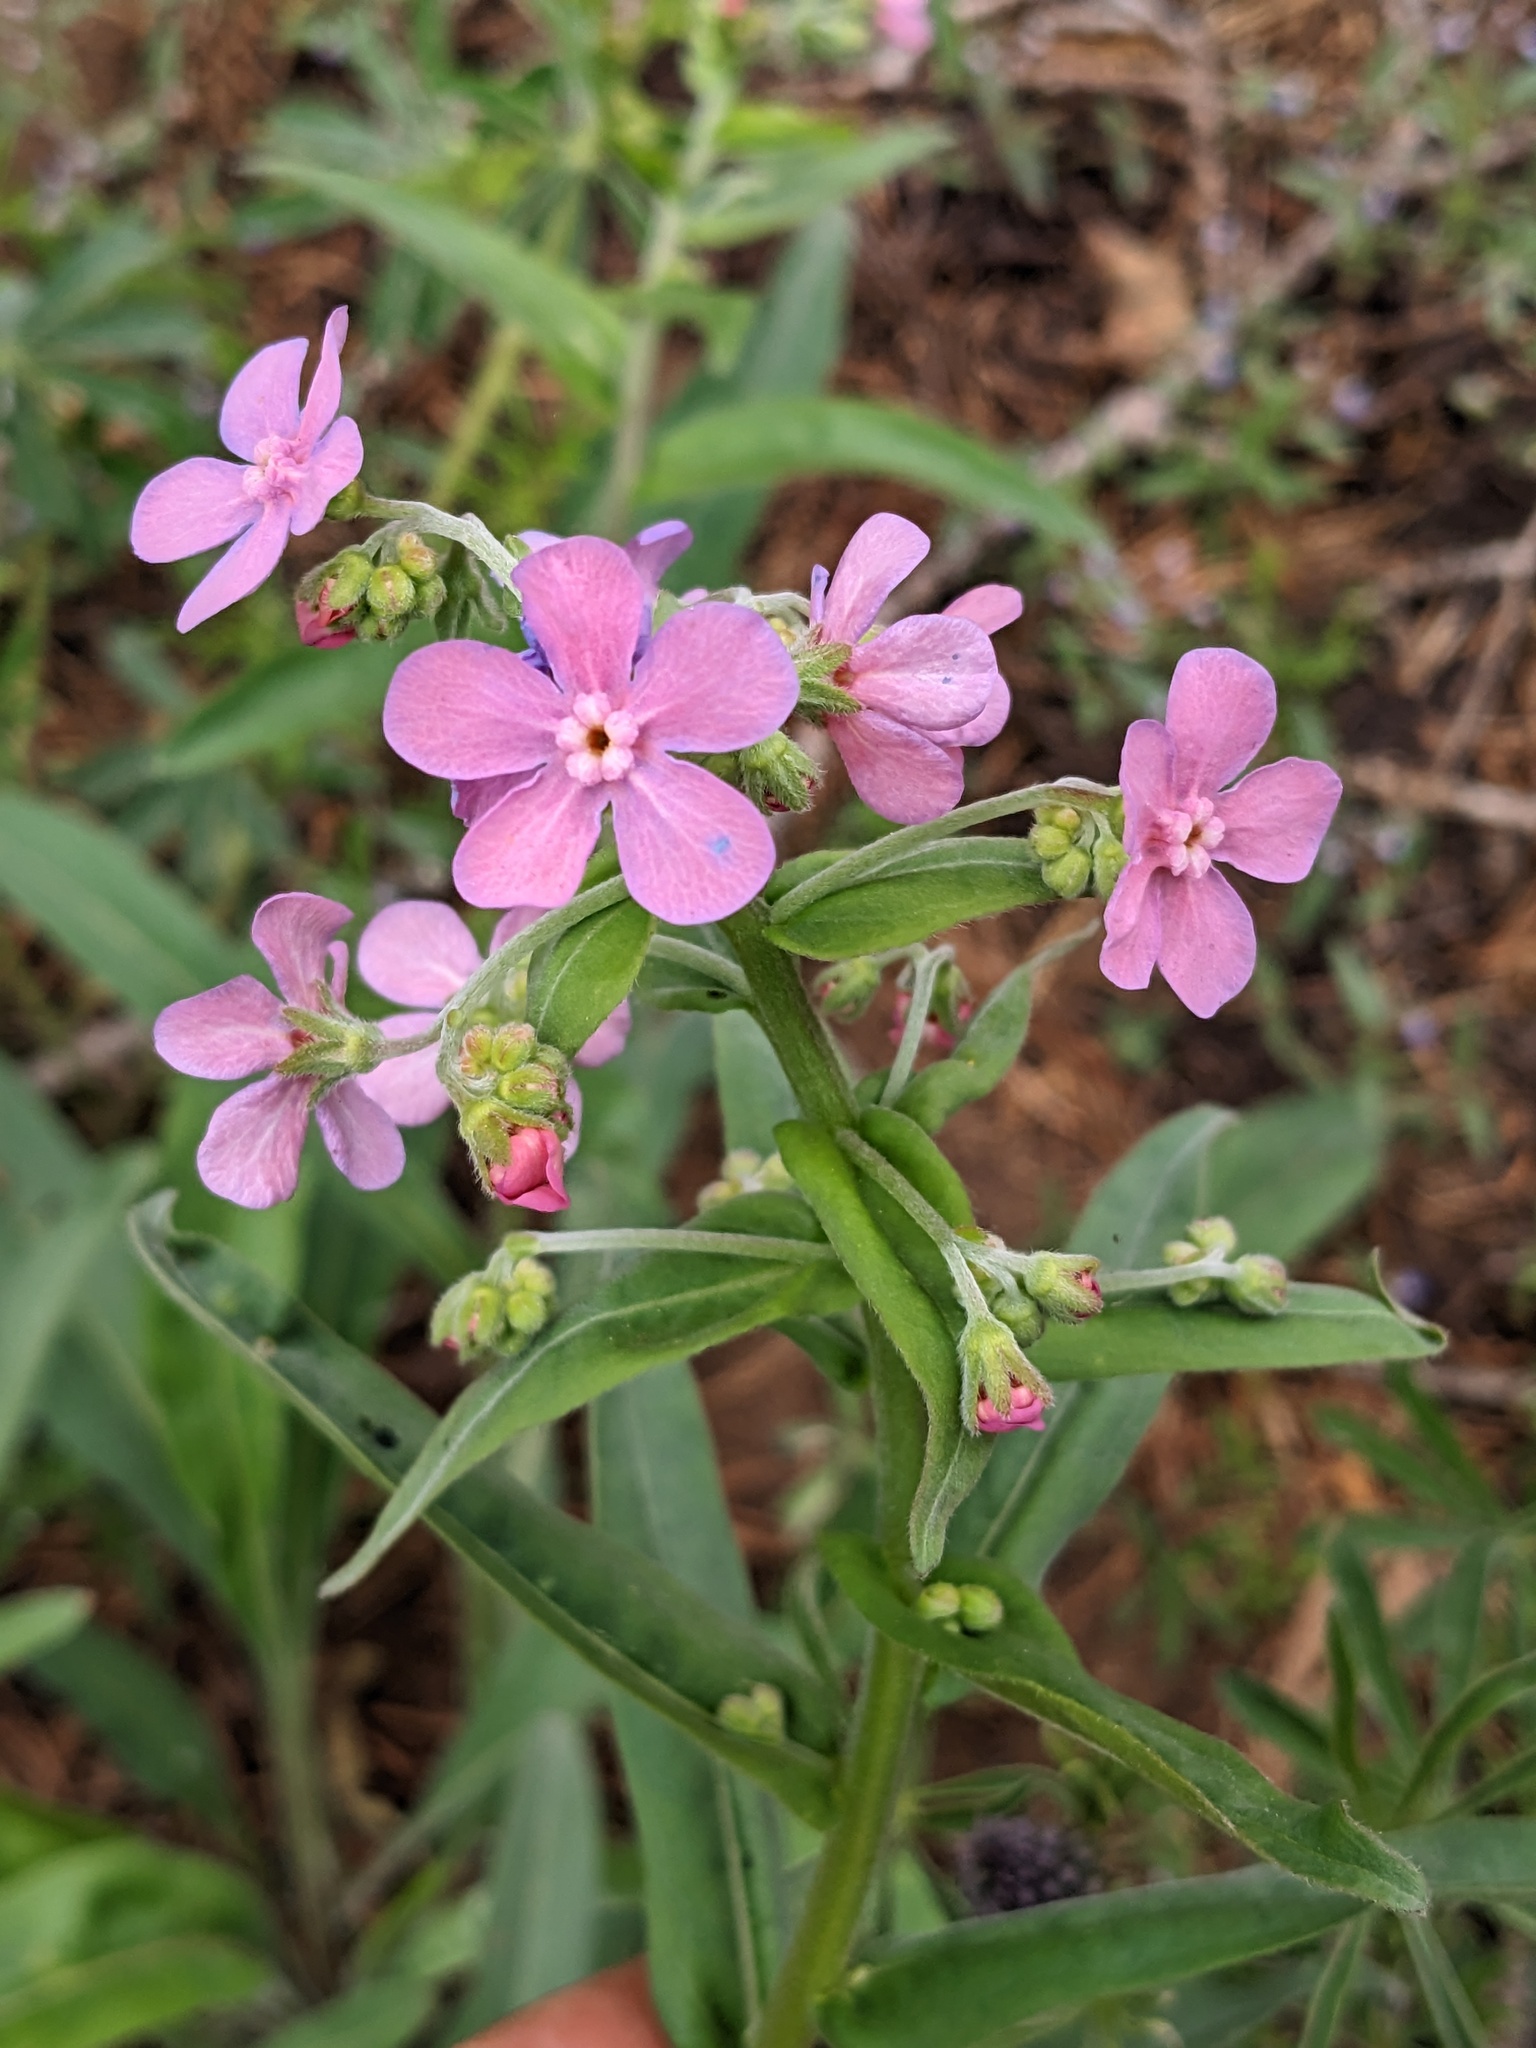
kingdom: Plantae
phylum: Tracheophyta
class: Magnoliopsida
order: Boraginales
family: Boraginaceae
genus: Hackelia
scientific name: Hackelia mundula
